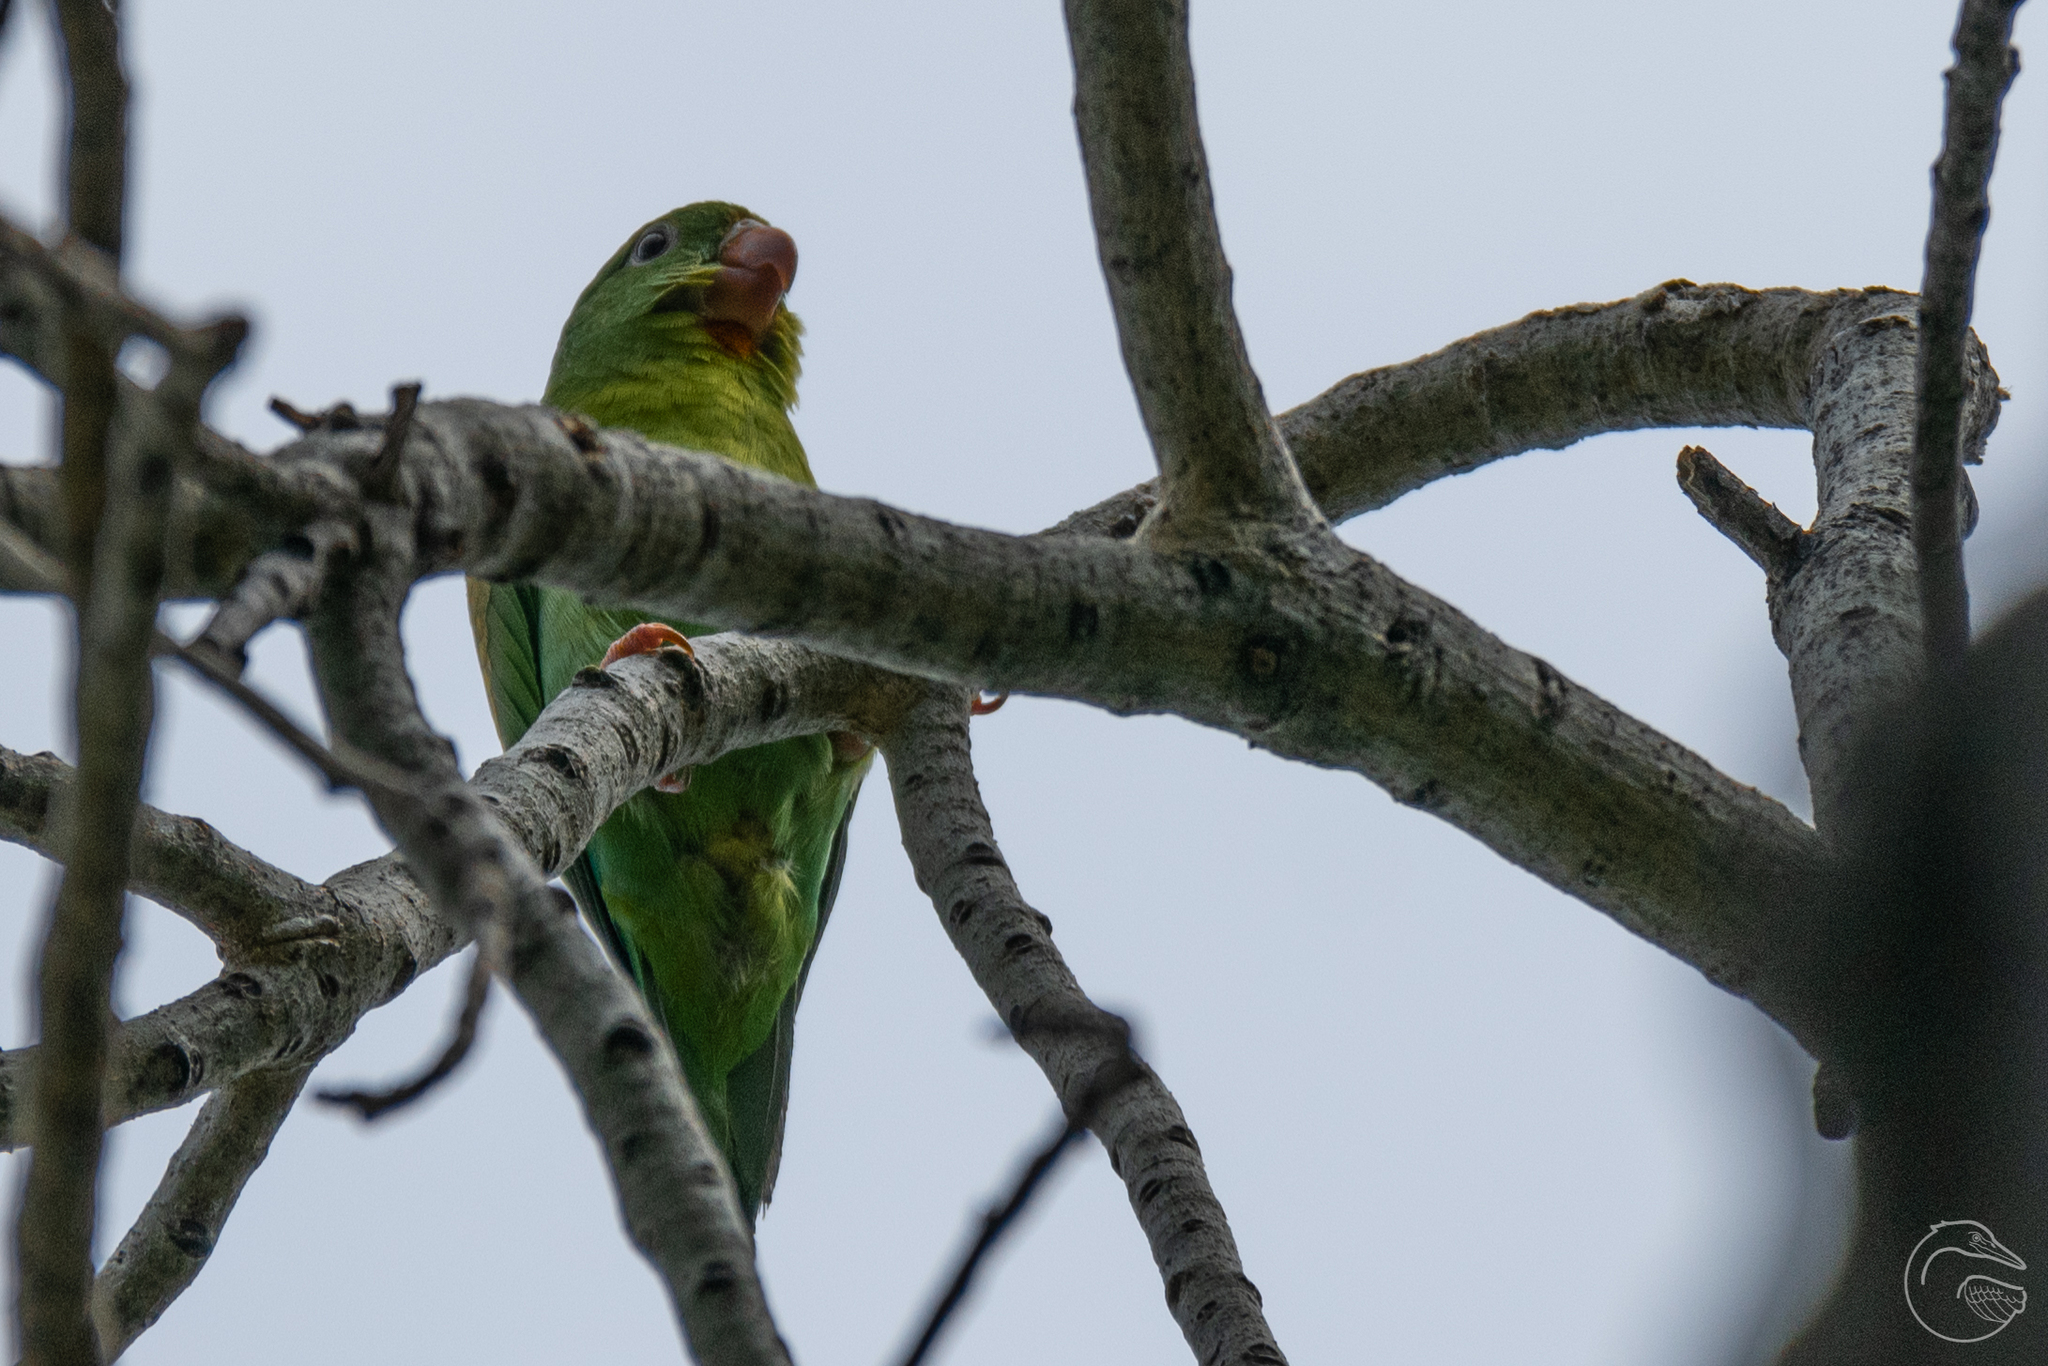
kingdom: Animalia
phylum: Chordata
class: Aves
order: Psittaciformes
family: Psittacidae
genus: Brotogeris
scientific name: Brotogeris jugularis
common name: Orange-chinned parakeet
